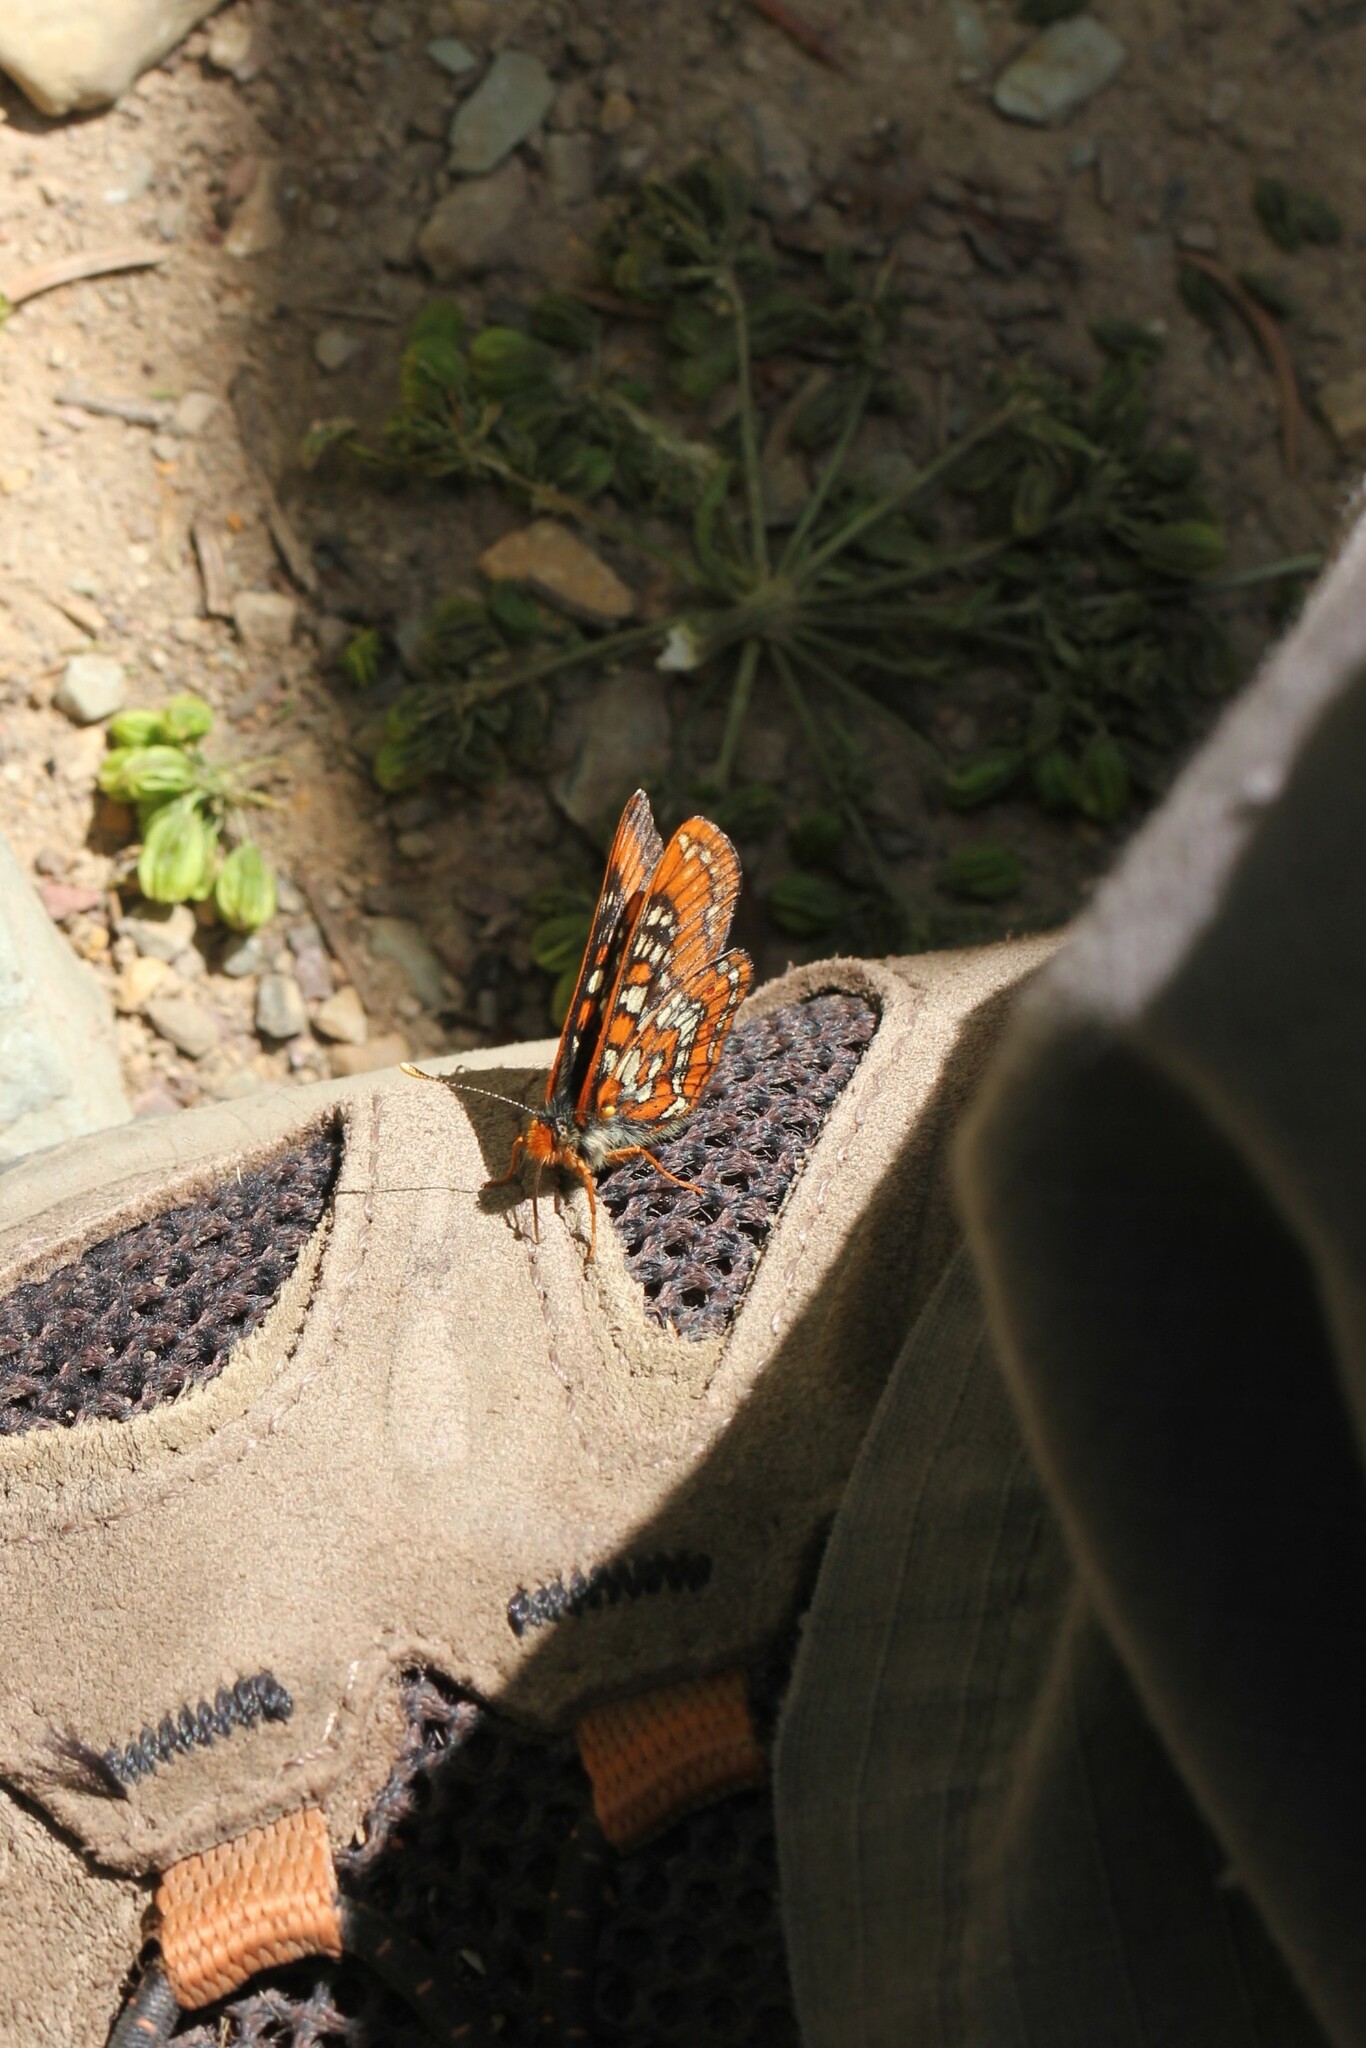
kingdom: Animalia
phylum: Arthropoda
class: Insecta
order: Lepidoptera
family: Nymphalidae
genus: Hypodryas
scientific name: Hypodryas gillettii
